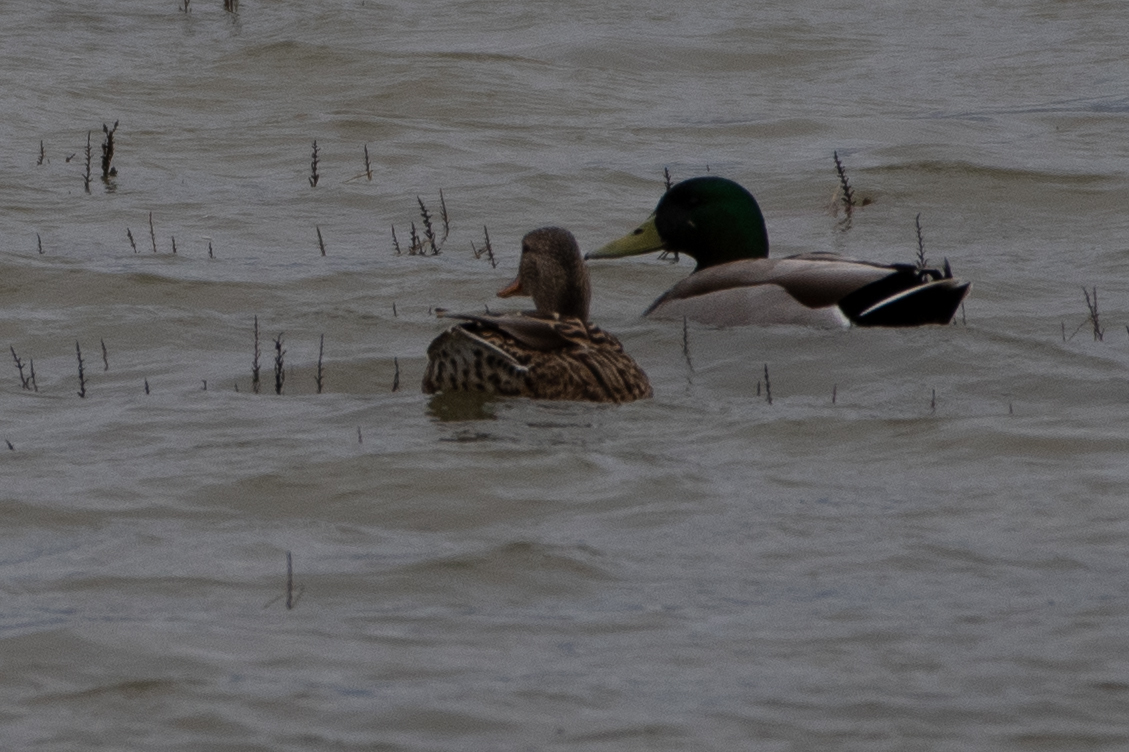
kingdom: Animalia
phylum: Chordata
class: Aves
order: Anseriformes
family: Anatidae
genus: Anas
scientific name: Anas platyrhynchos
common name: Mallard
